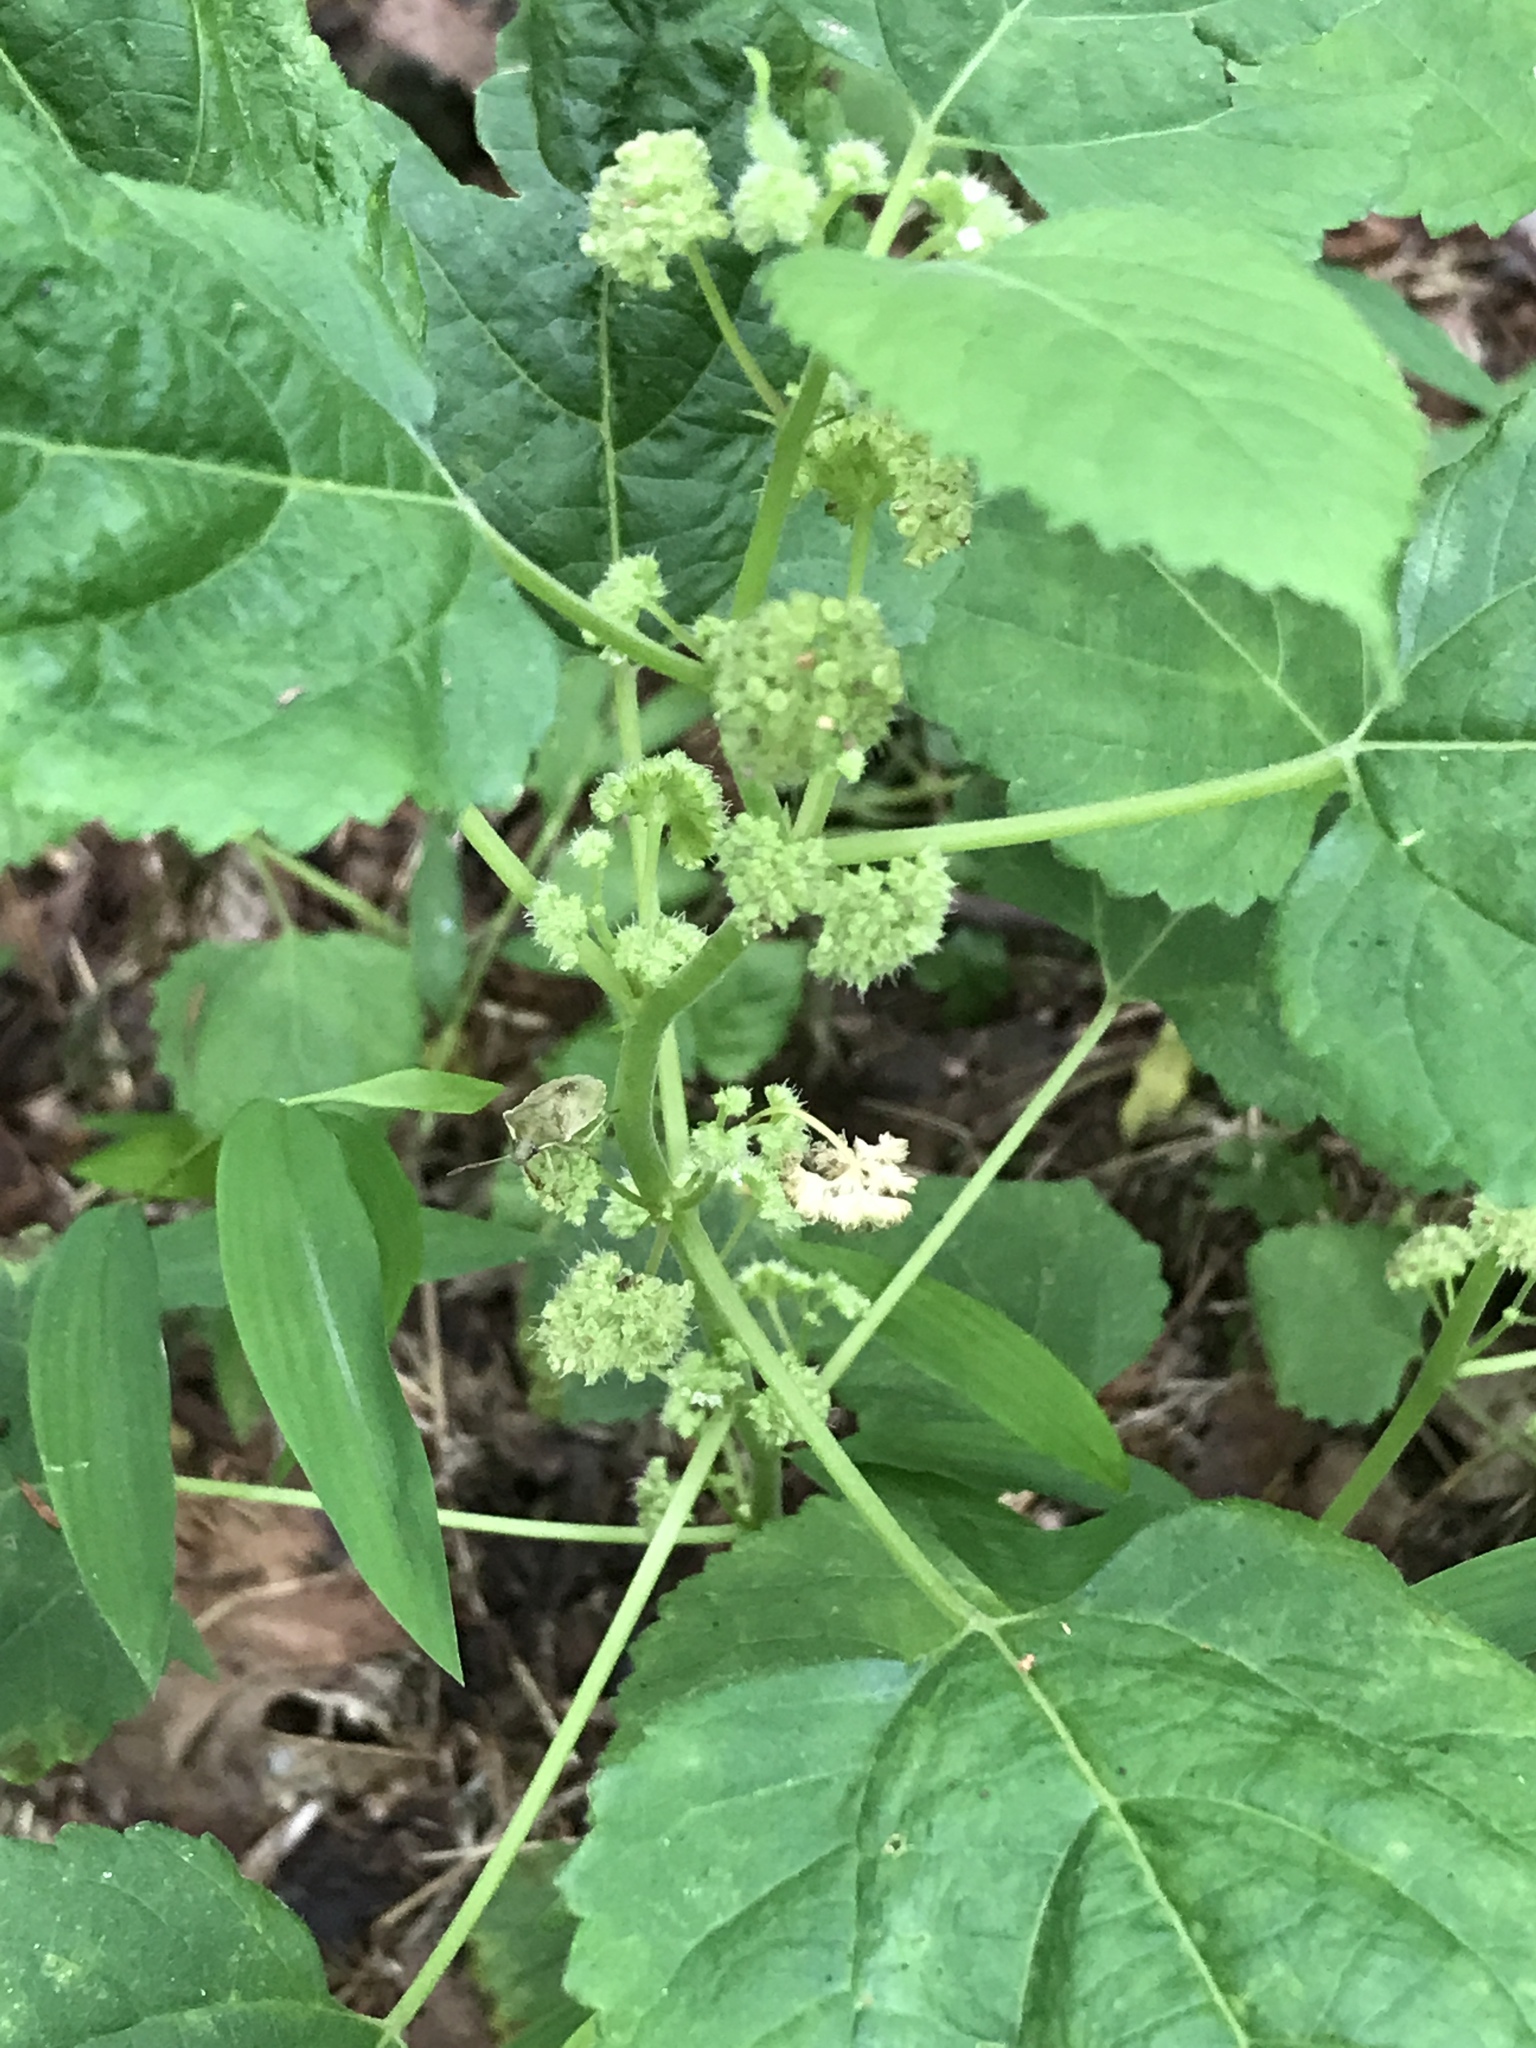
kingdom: Plantae
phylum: Tracheophyta
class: Magnoliopsida
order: Rosales
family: Moraceae
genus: Fatoua
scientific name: Fatoua villosa
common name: Hairy crabweed
